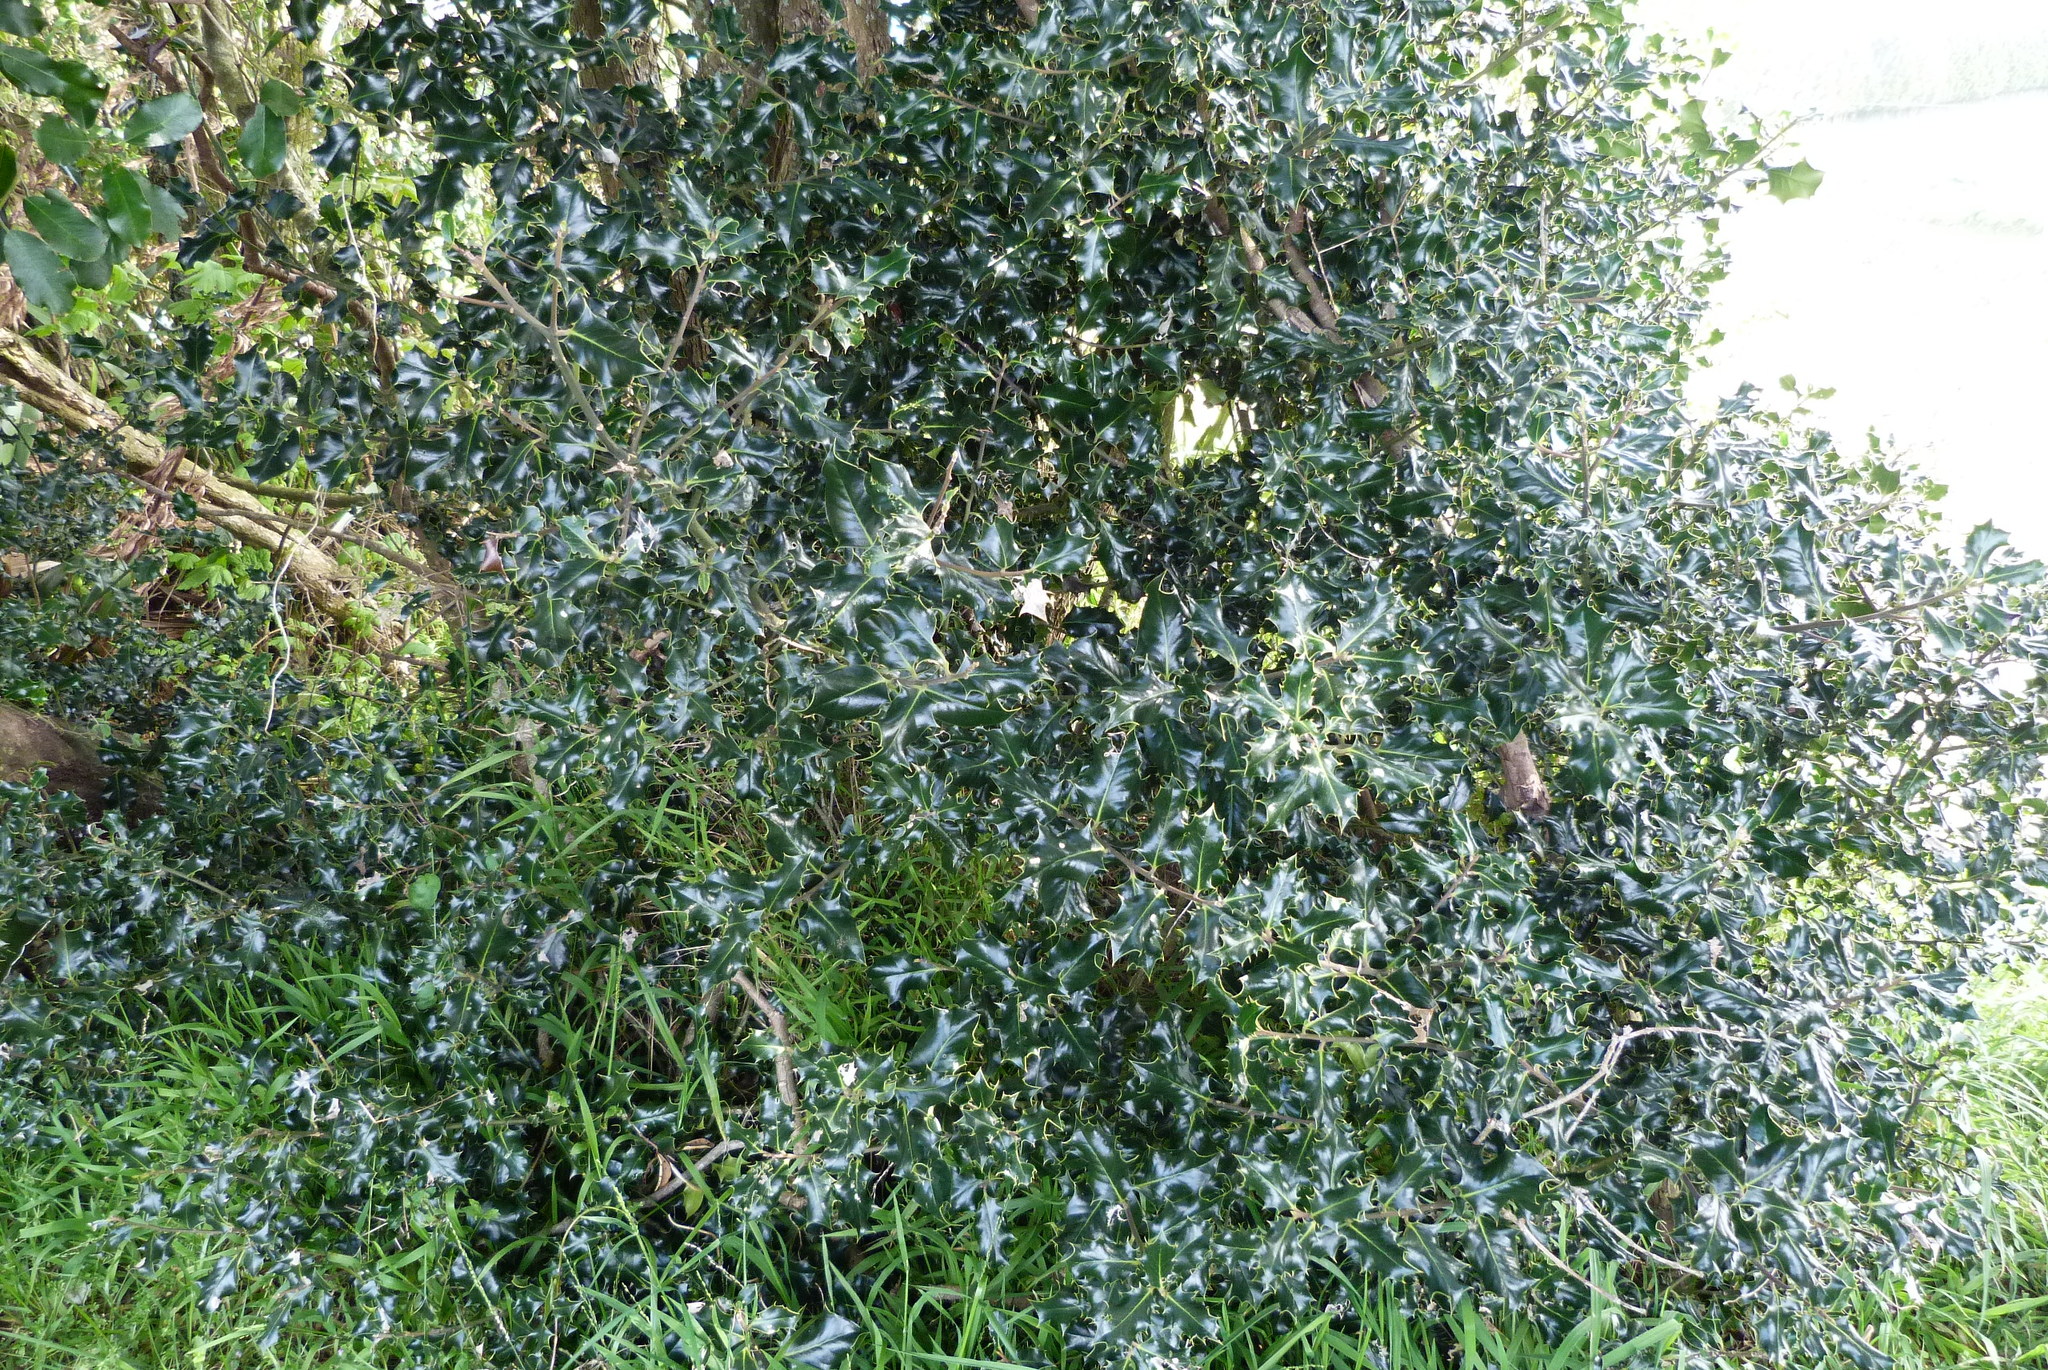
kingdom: Plantae
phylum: Tracheophyta
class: Magnoliopsida
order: Aquifoliales
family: Aquifoliaceae
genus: Ilex
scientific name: Ilex aquifolium
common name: English holly
